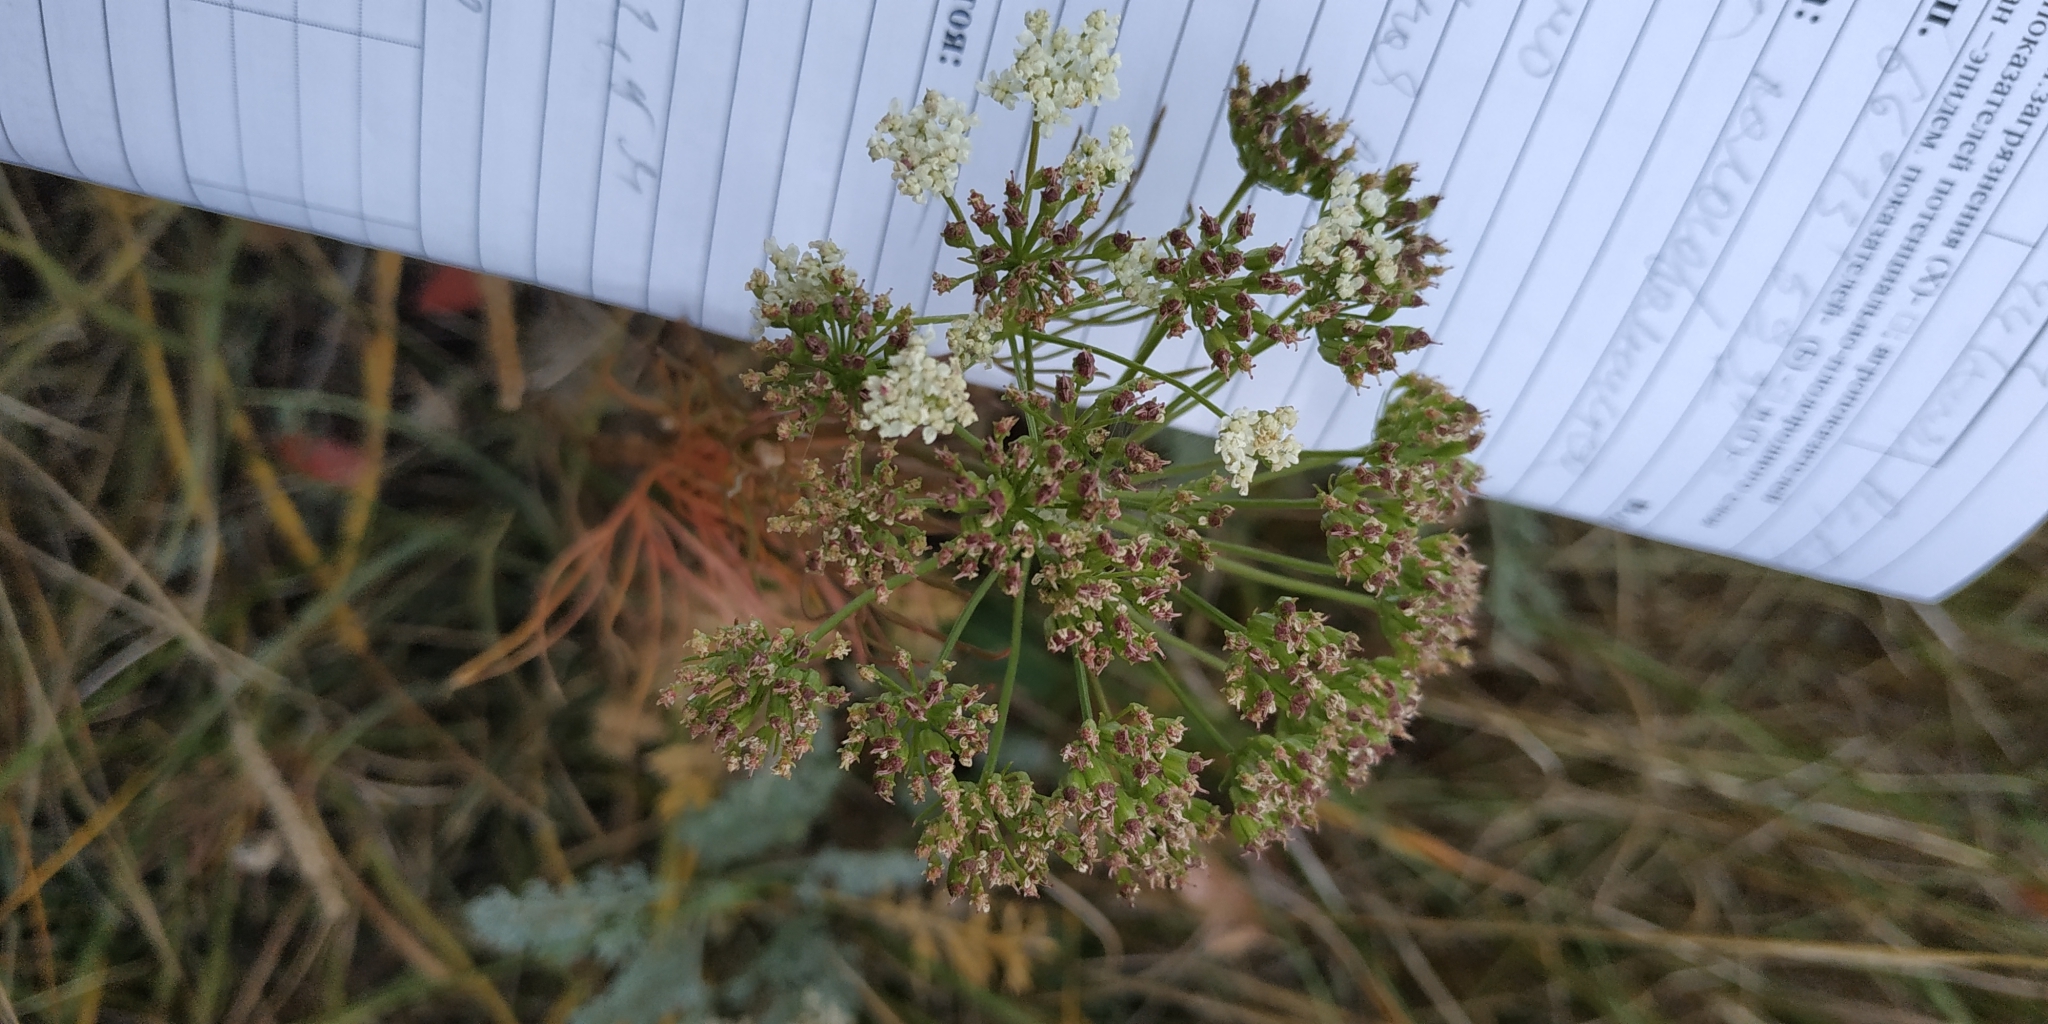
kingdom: Plantae
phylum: Tracheophyta
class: Magnoliopsida
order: Apiales
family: Apiaceae
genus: Seseli
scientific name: Seseli strictum
